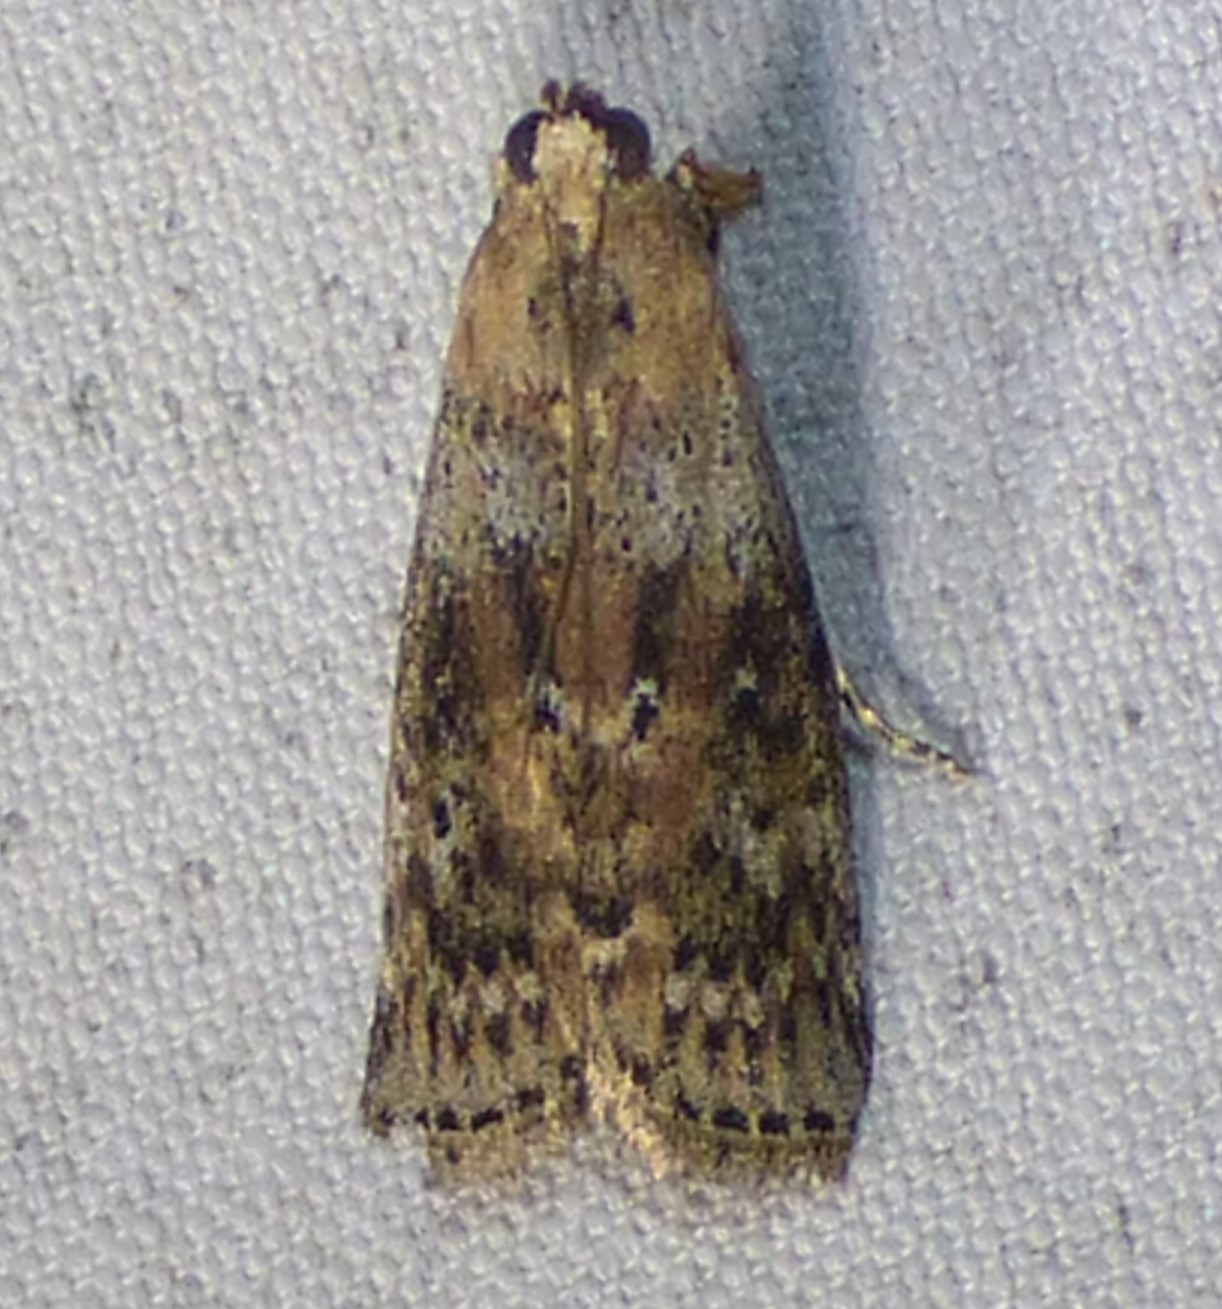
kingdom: Animalia
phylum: Arthropoda
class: Insecta
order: Lepidoptera
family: Pyralidae
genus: Sciota
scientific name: Sciota celtidella
